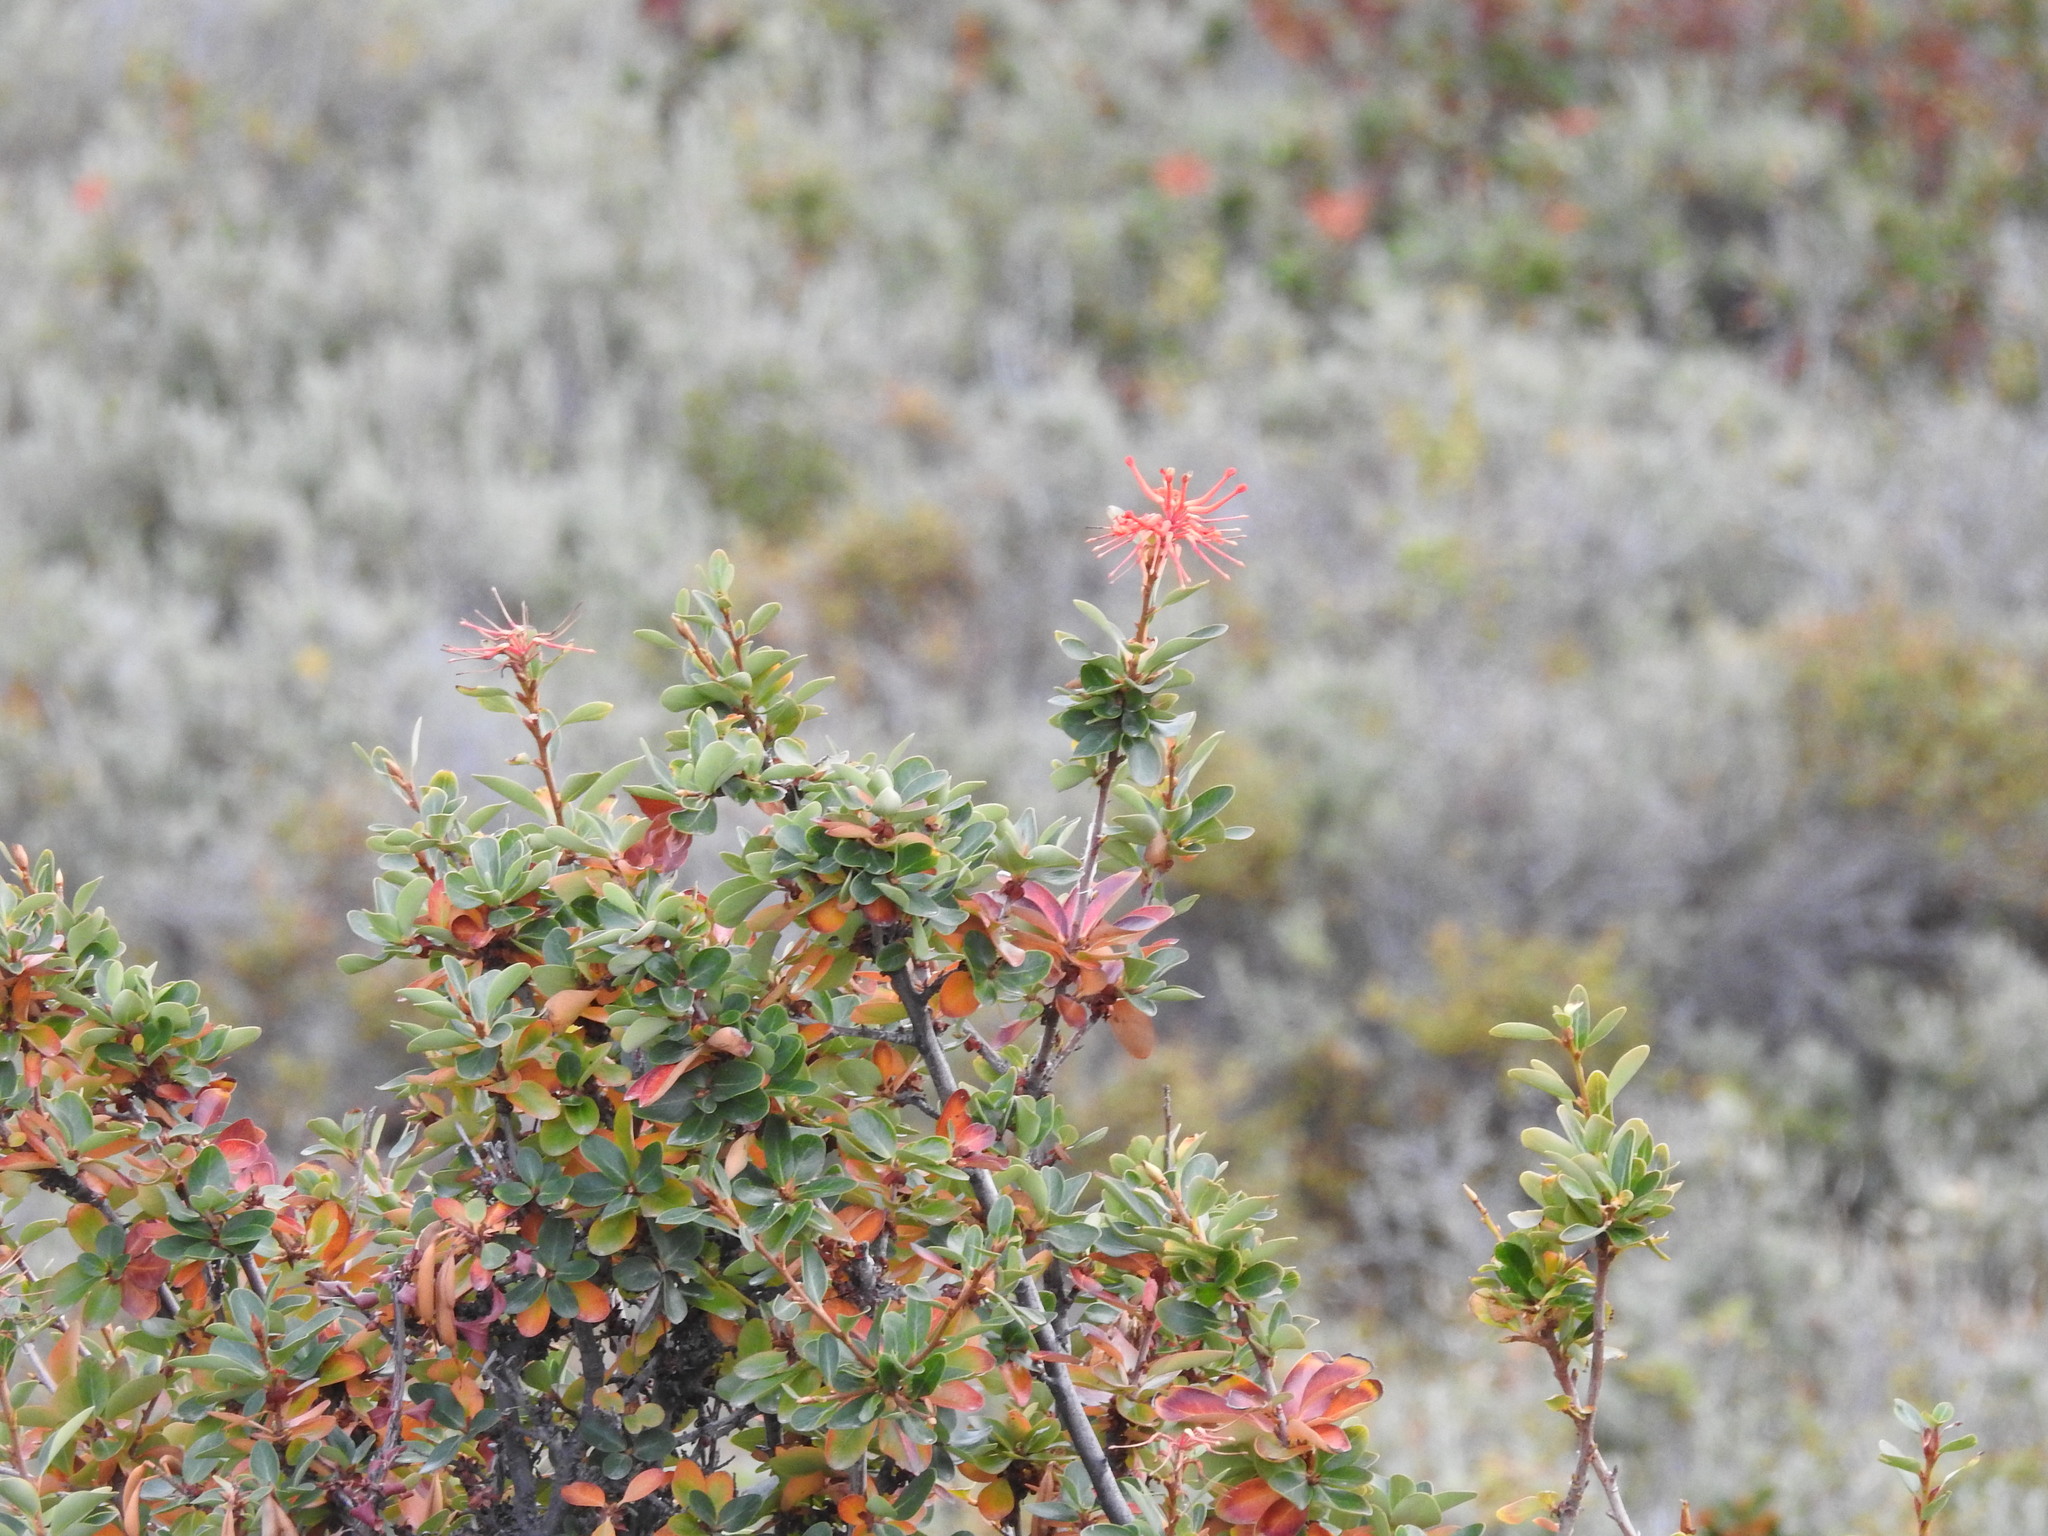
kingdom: Plantae
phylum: Tracheophyta
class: Magnoliopsida
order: Proteales
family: Proteaceae
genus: Embothrium
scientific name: Embothrium coccineum
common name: Chilean firebush
